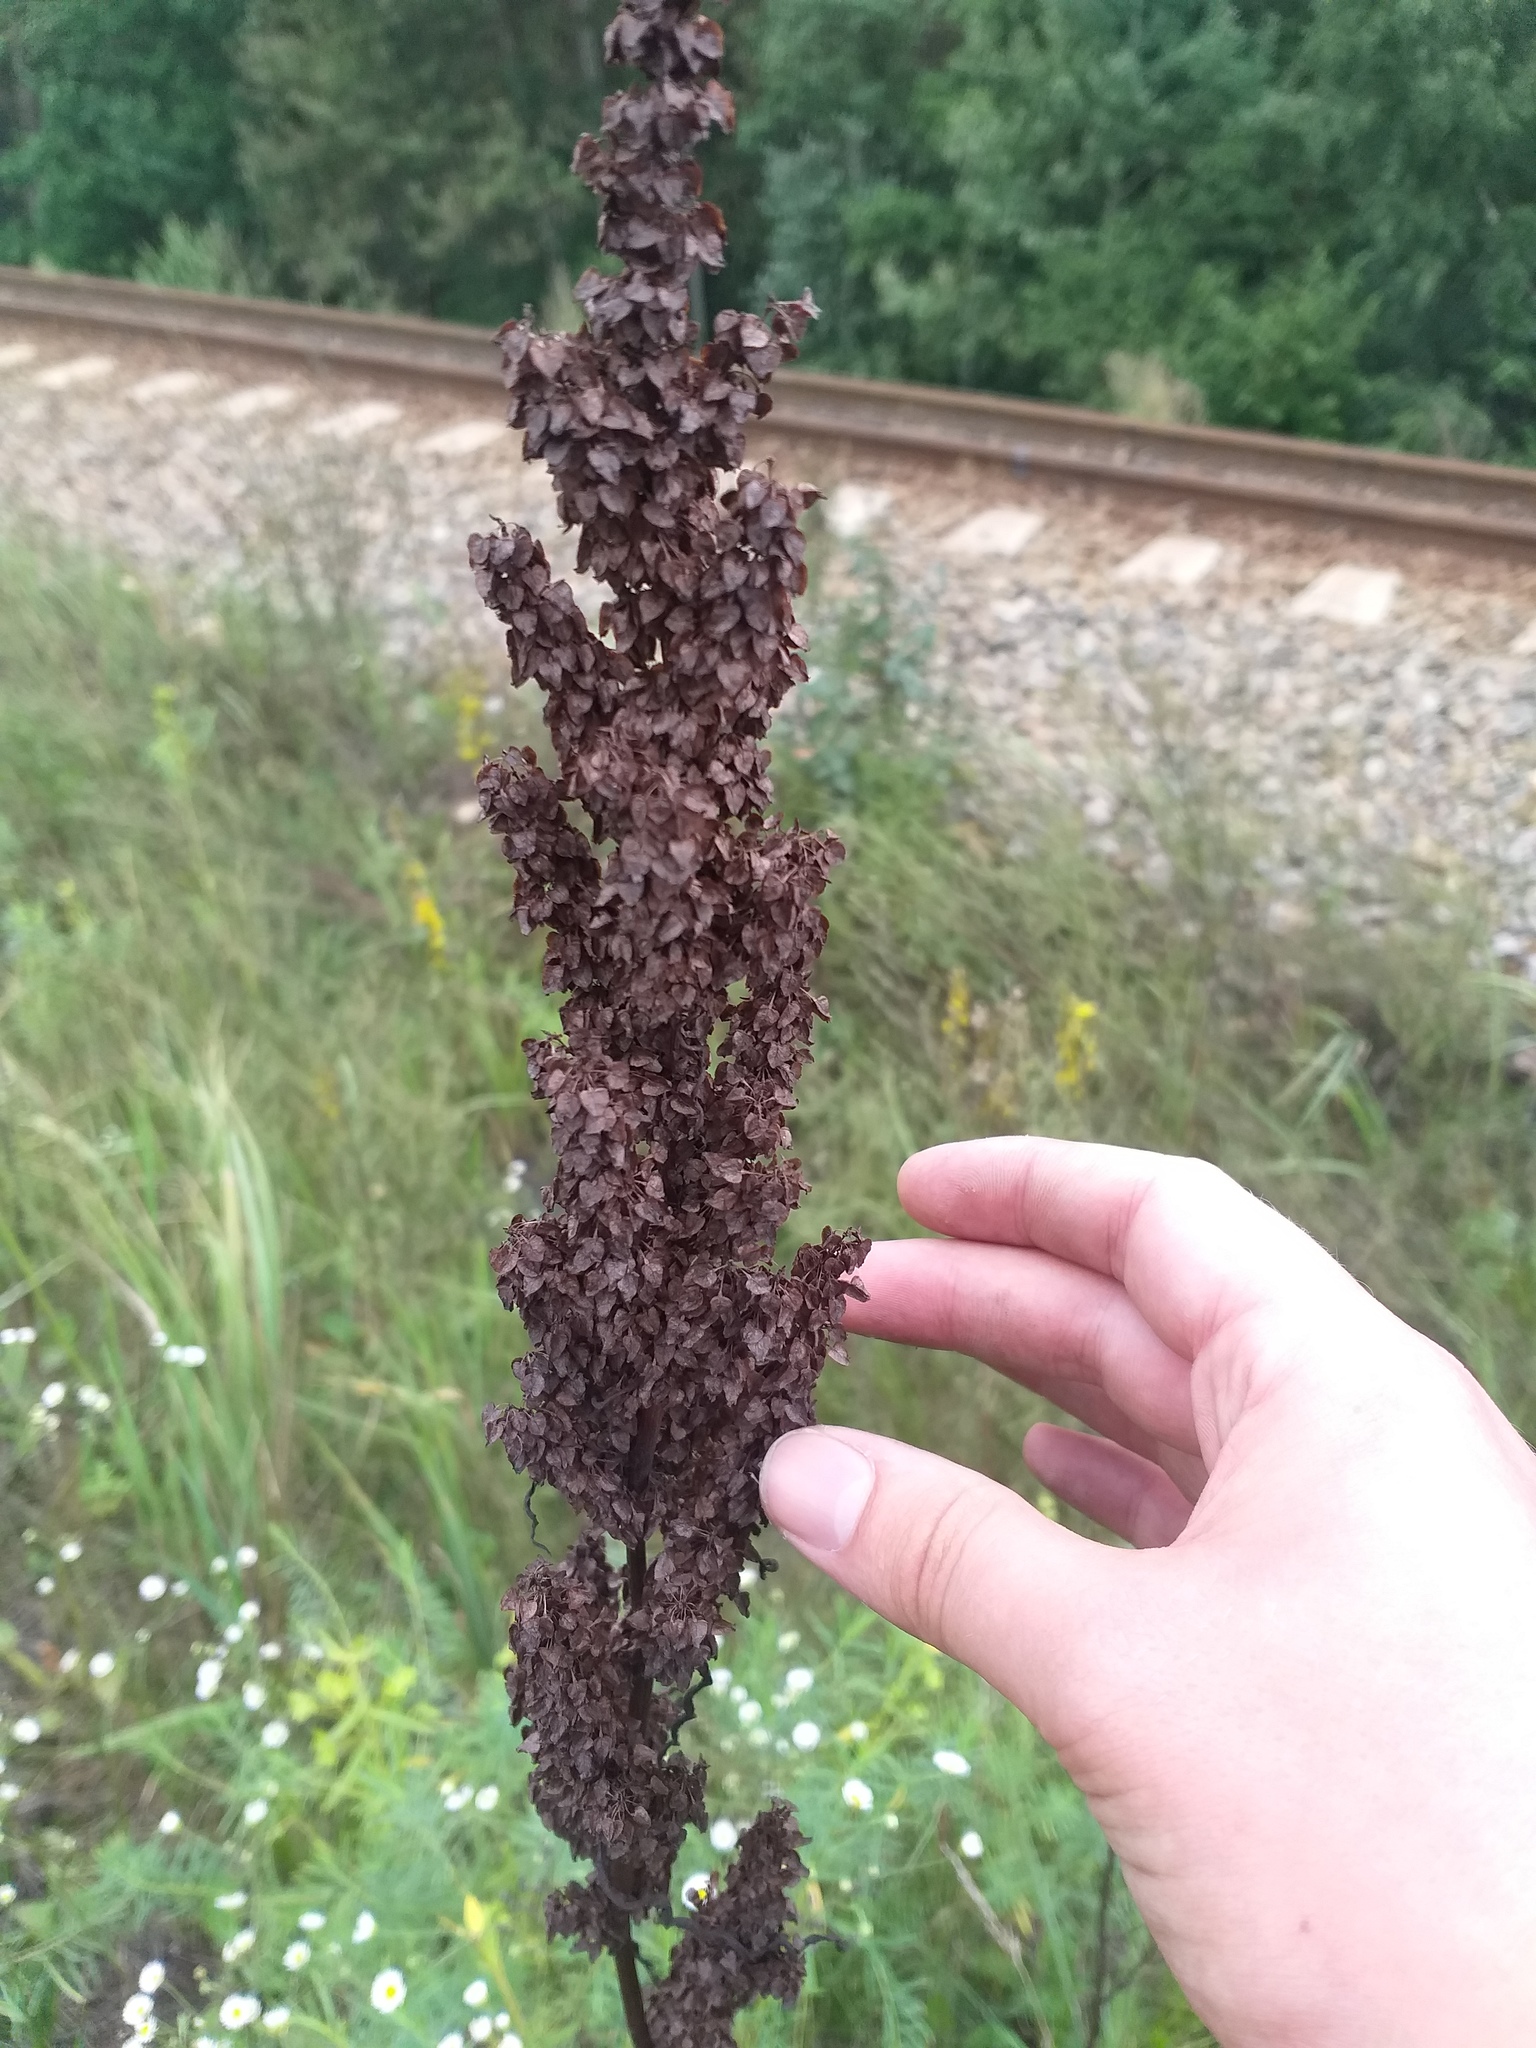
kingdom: Plantae
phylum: Tracheophyta
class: Magnoliopsida
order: Caryophyllales
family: Polygonaceae
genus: Rumex
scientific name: Rumex pseudonatronatus
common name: Field dock
